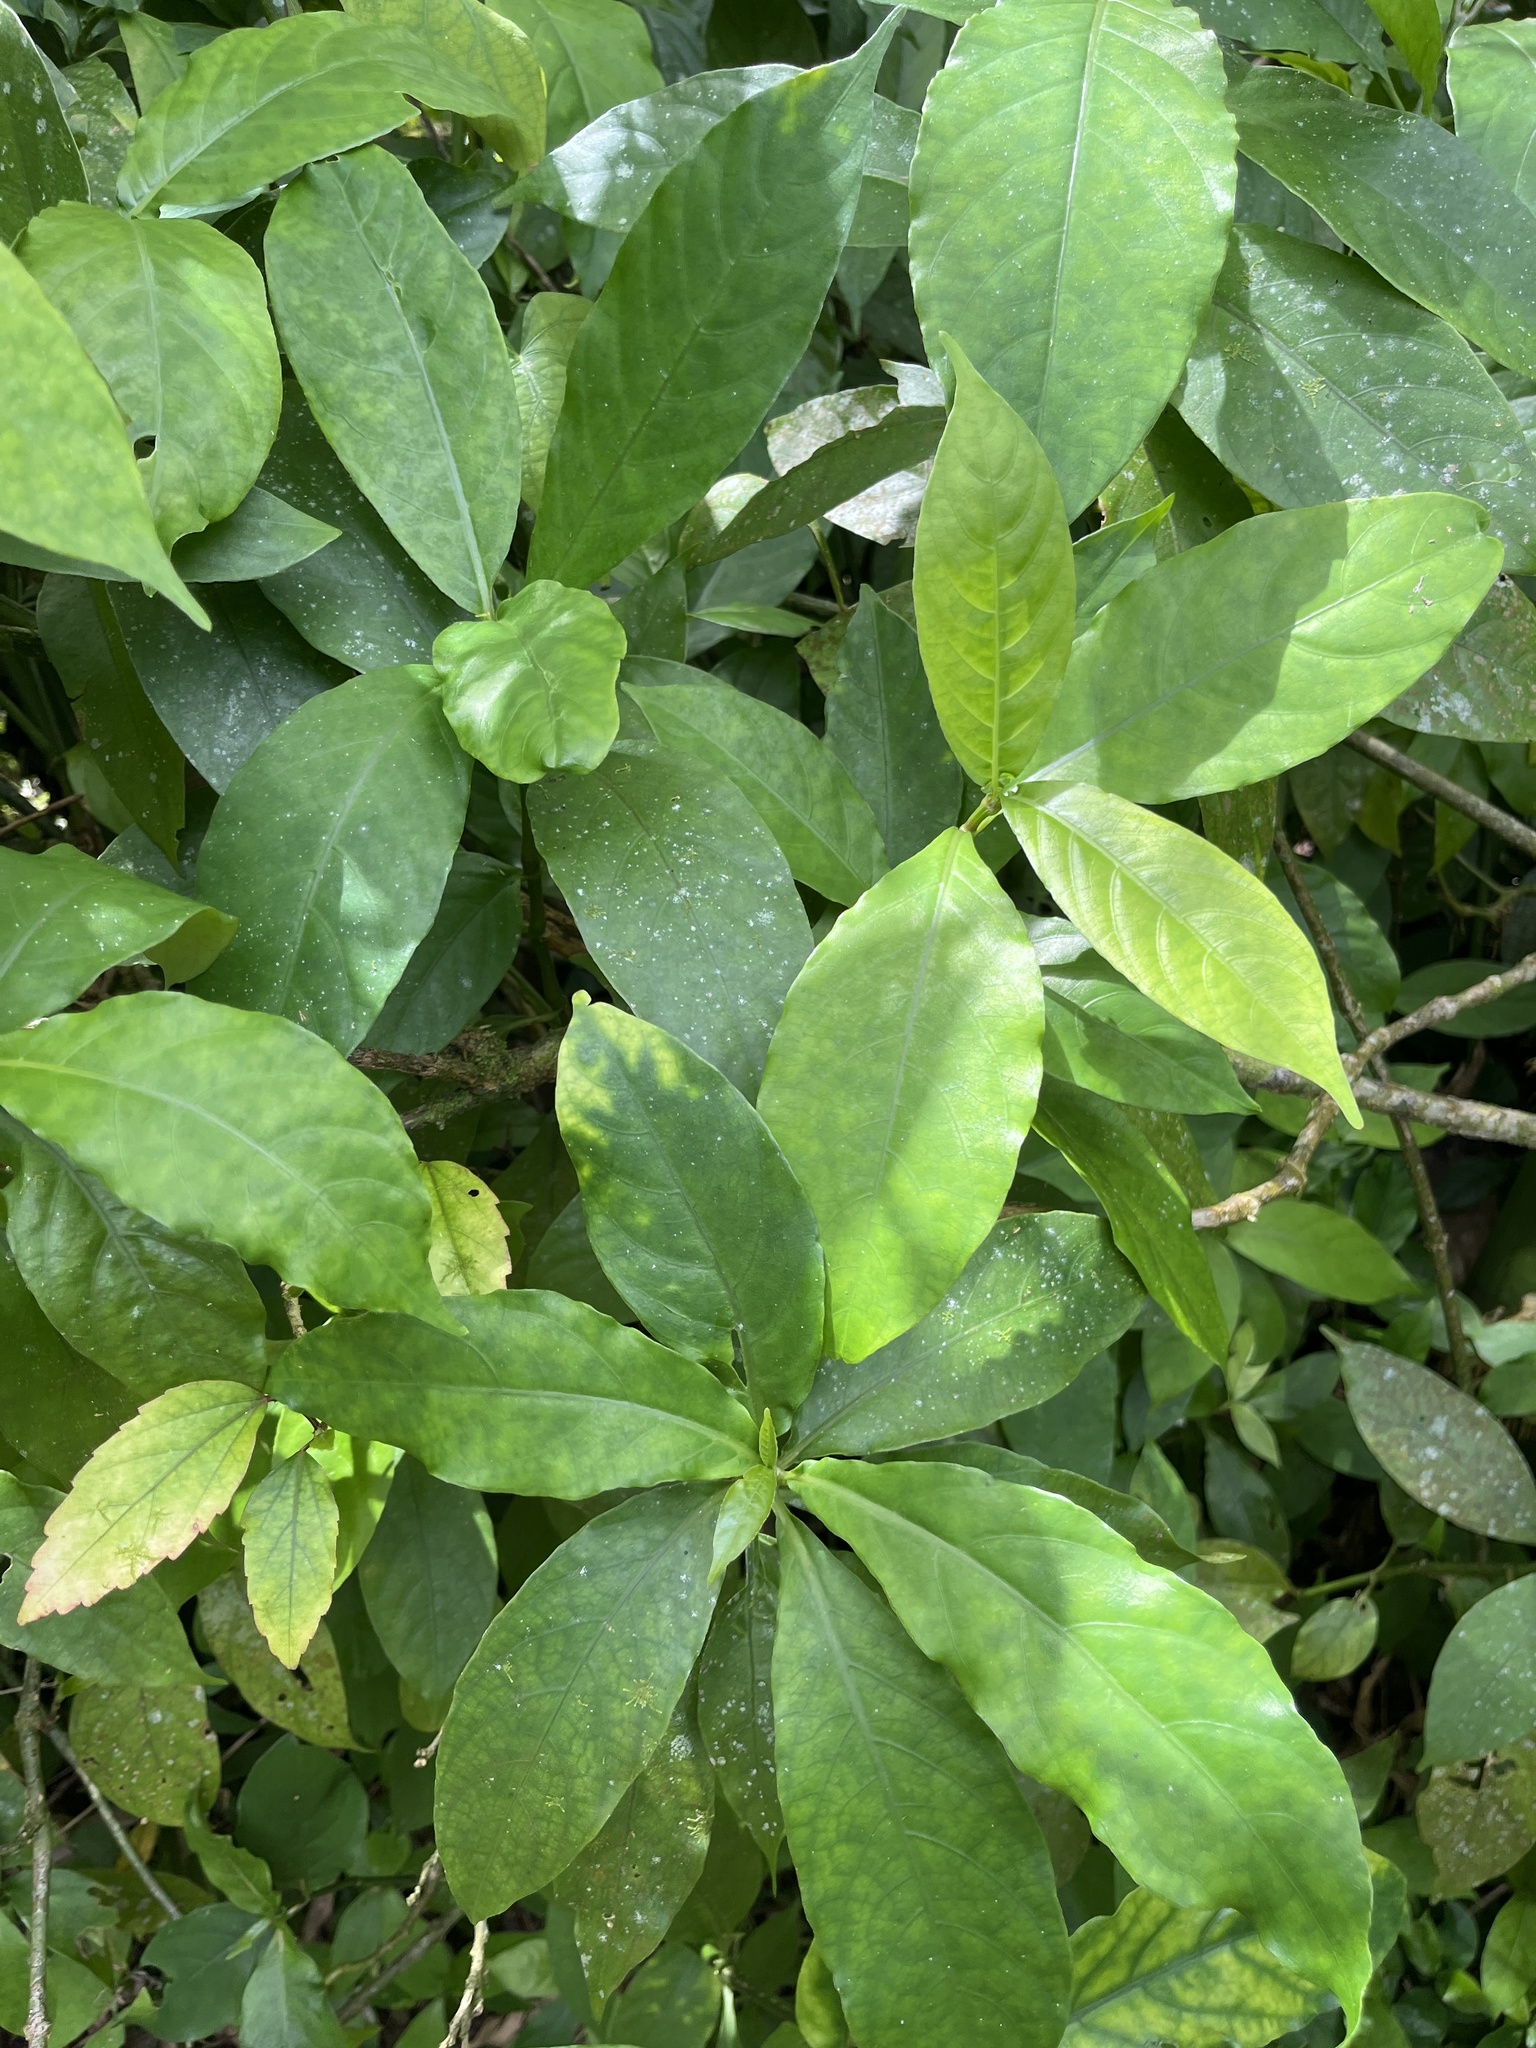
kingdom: Plantae
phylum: Tracheophyta
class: Magnoliopsida
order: Lamiales
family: Acanthaceae
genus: Odontonema
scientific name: Odontonema cuspidatum
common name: Mottled toothedthread
